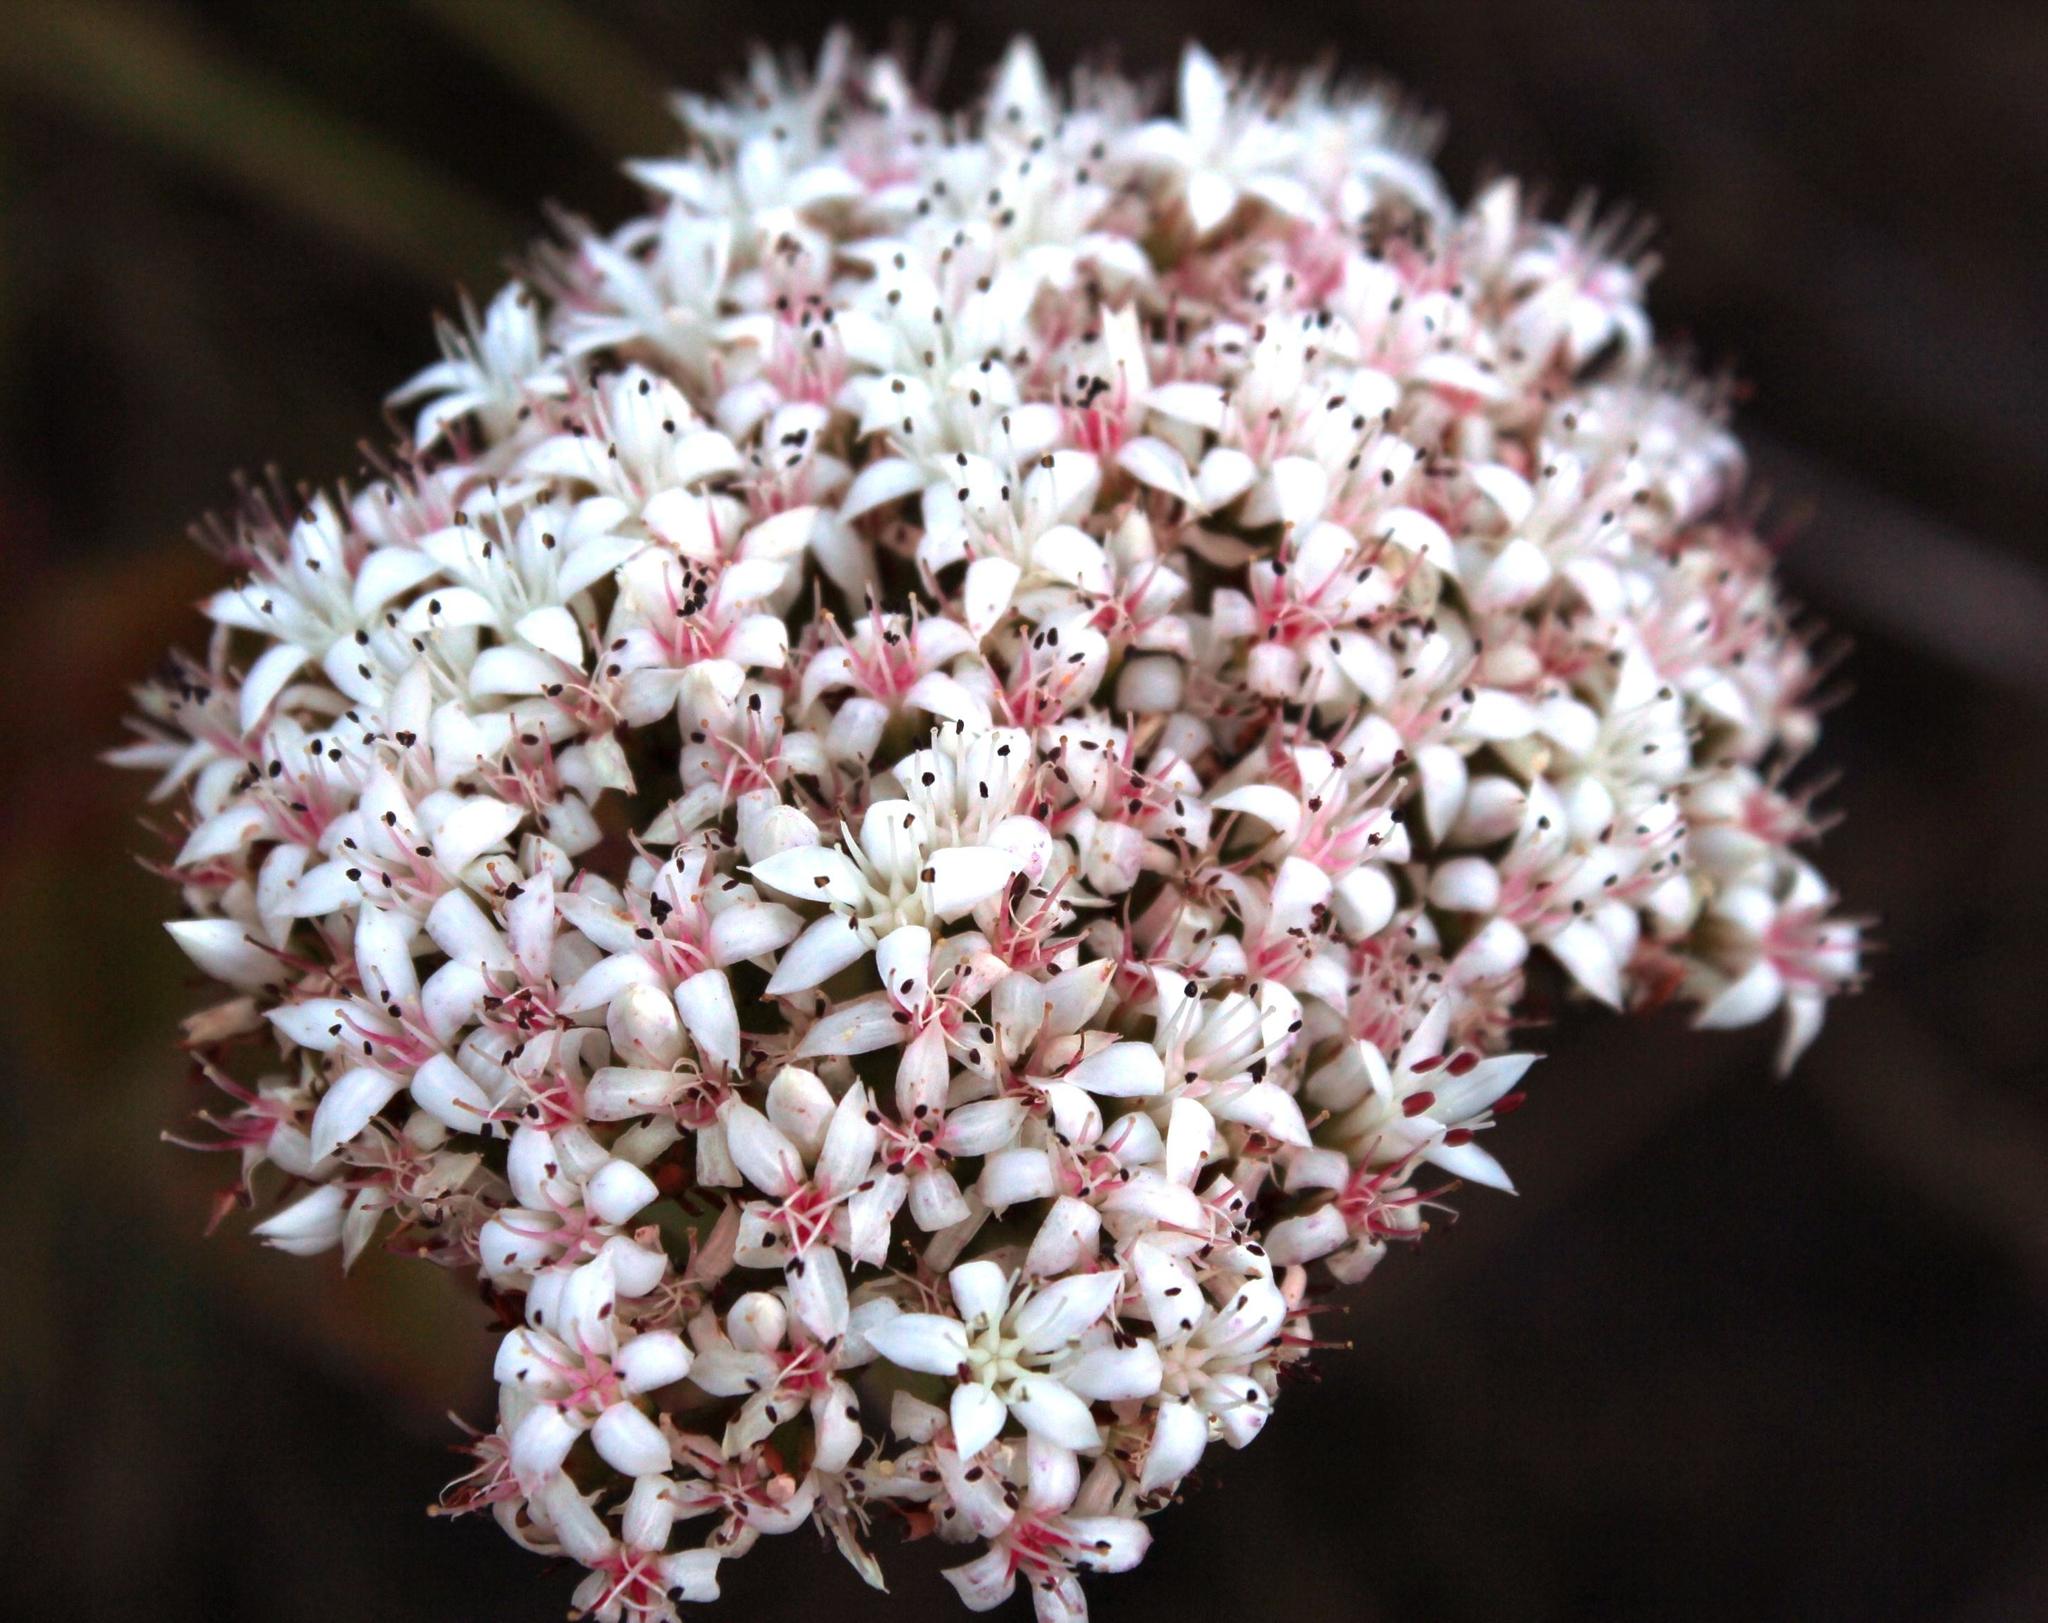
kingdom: Plantae
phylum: Tracheophyta
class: Magnoliopsida
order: Saxifragales
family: Crassulaceae
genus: Crassula
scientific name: Crassula undulata
